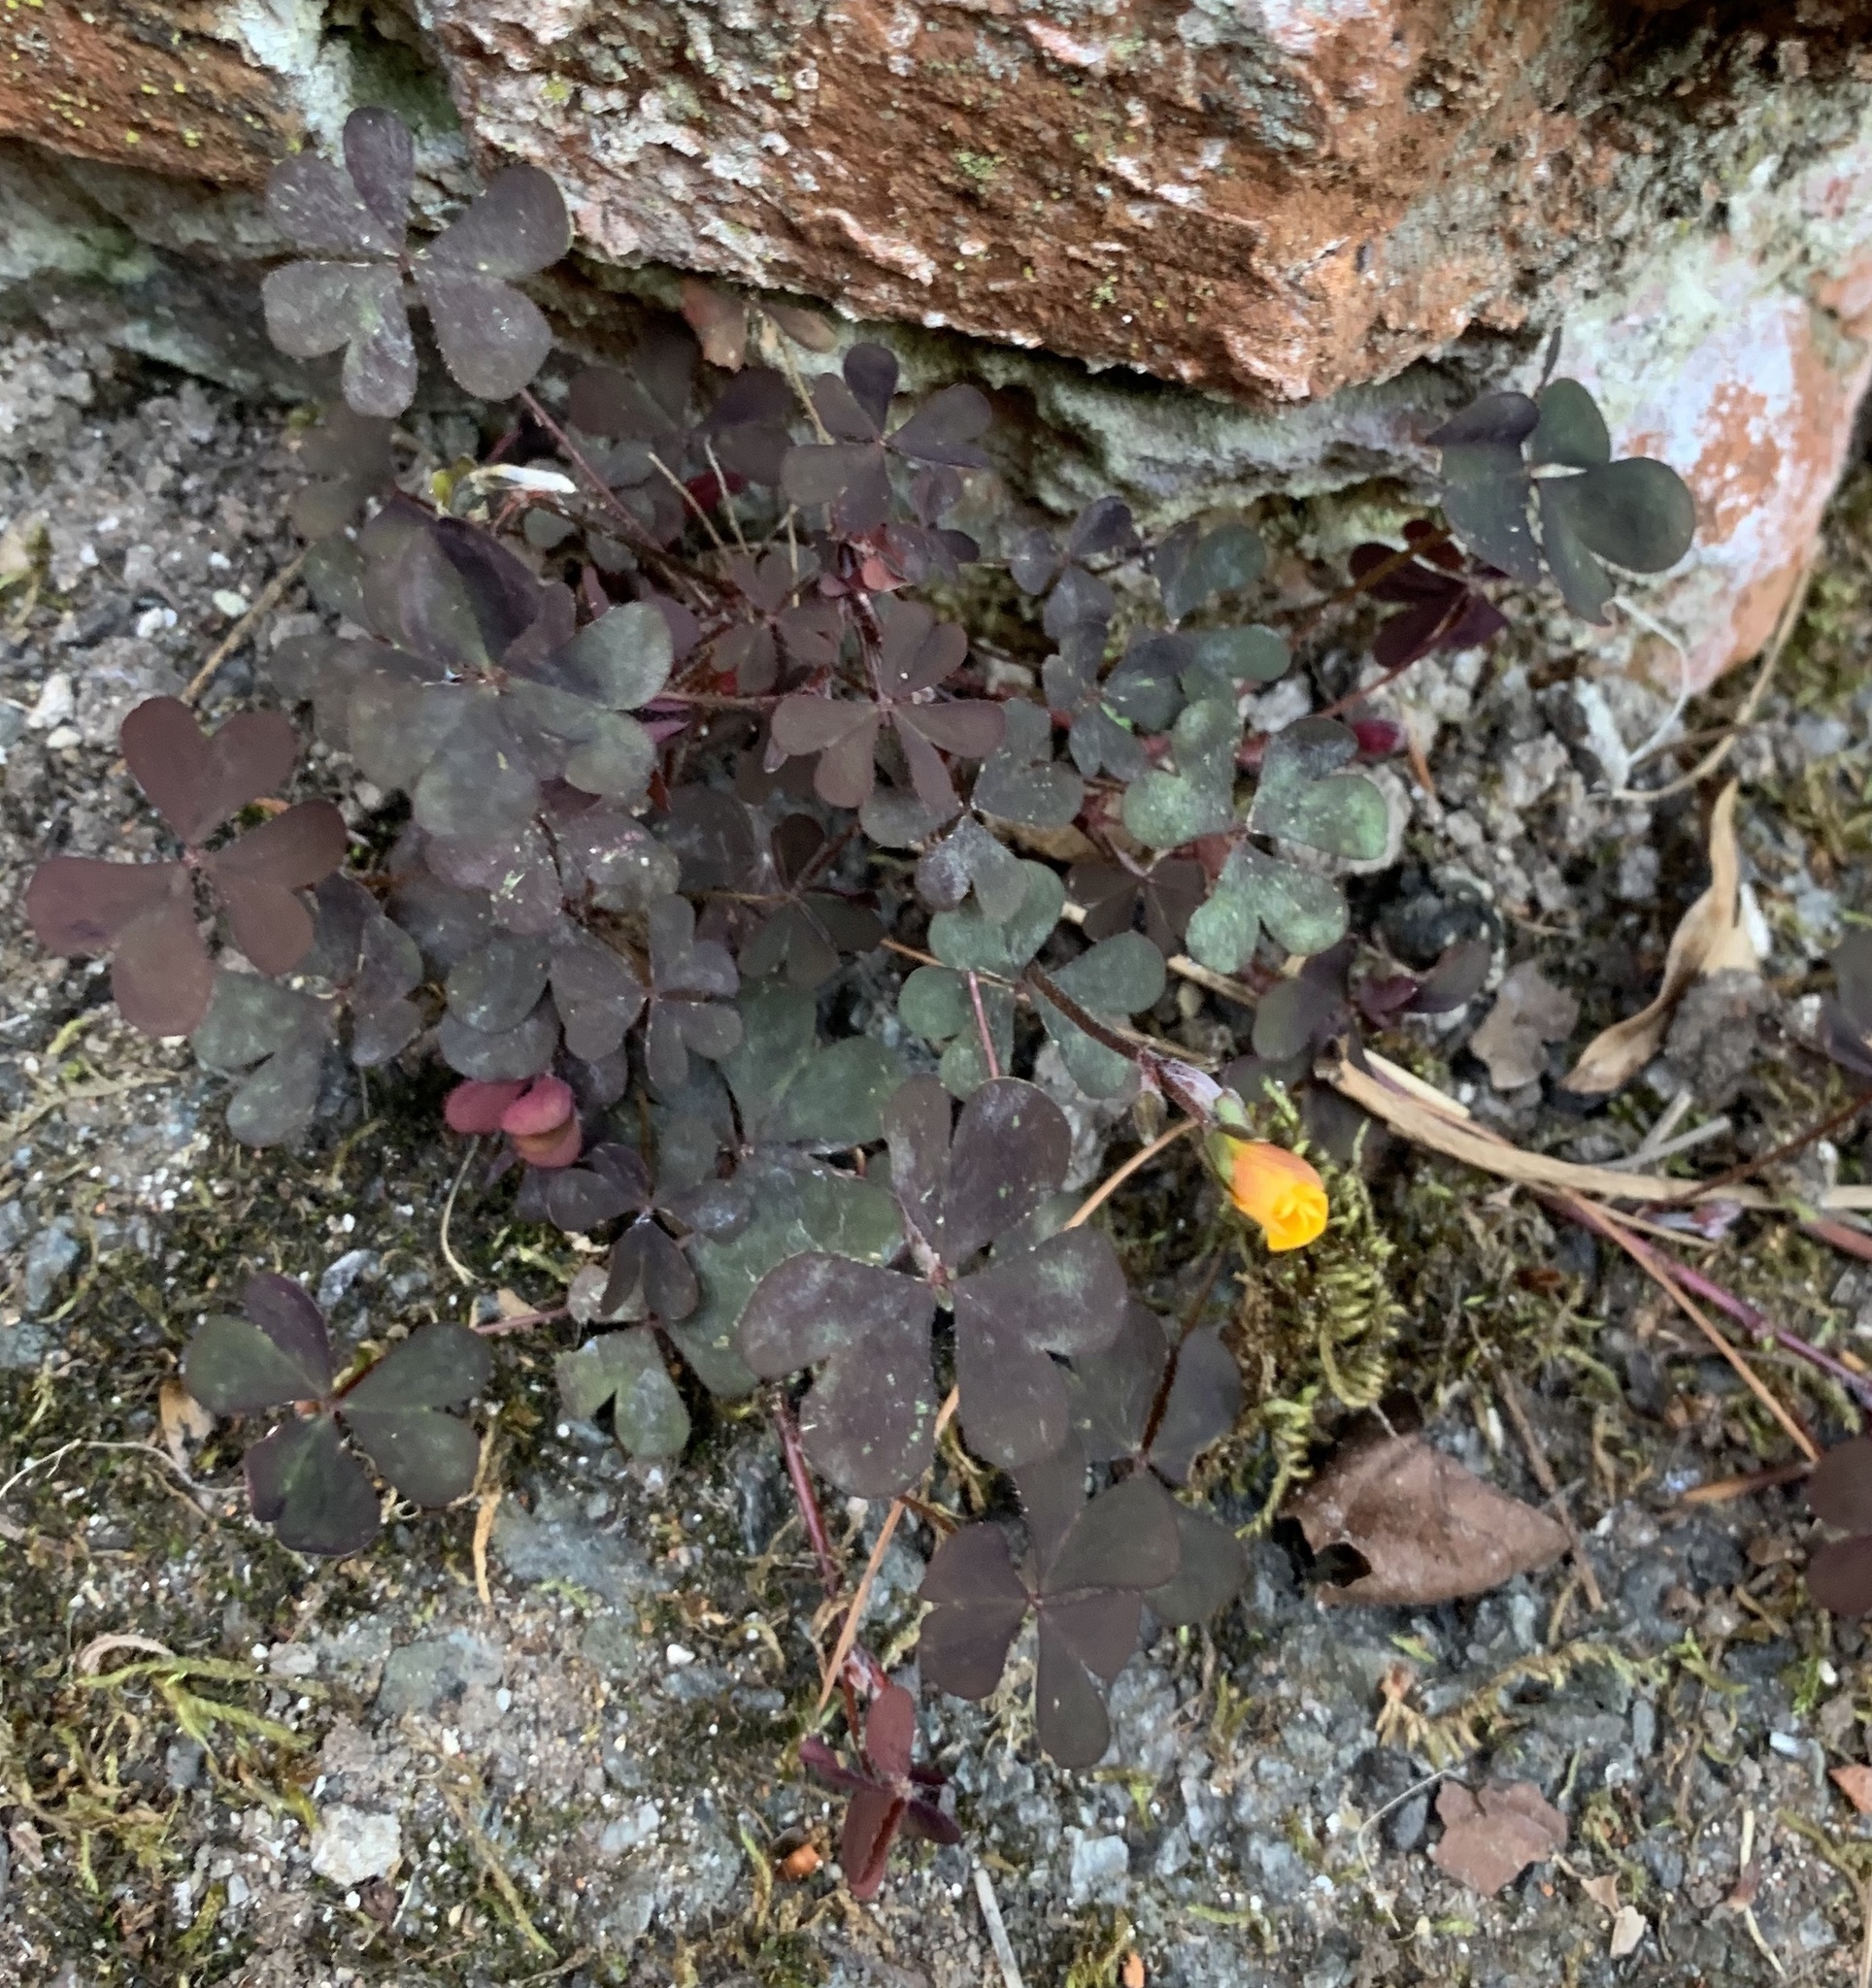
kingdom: Plantae
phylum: Tracheophyta
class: Magnoliopsida
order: Oxalidales
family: Oxalidaceae
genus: Oxalis
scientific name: Oxalis corniculata
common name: Procumbent yellow-sorrel
